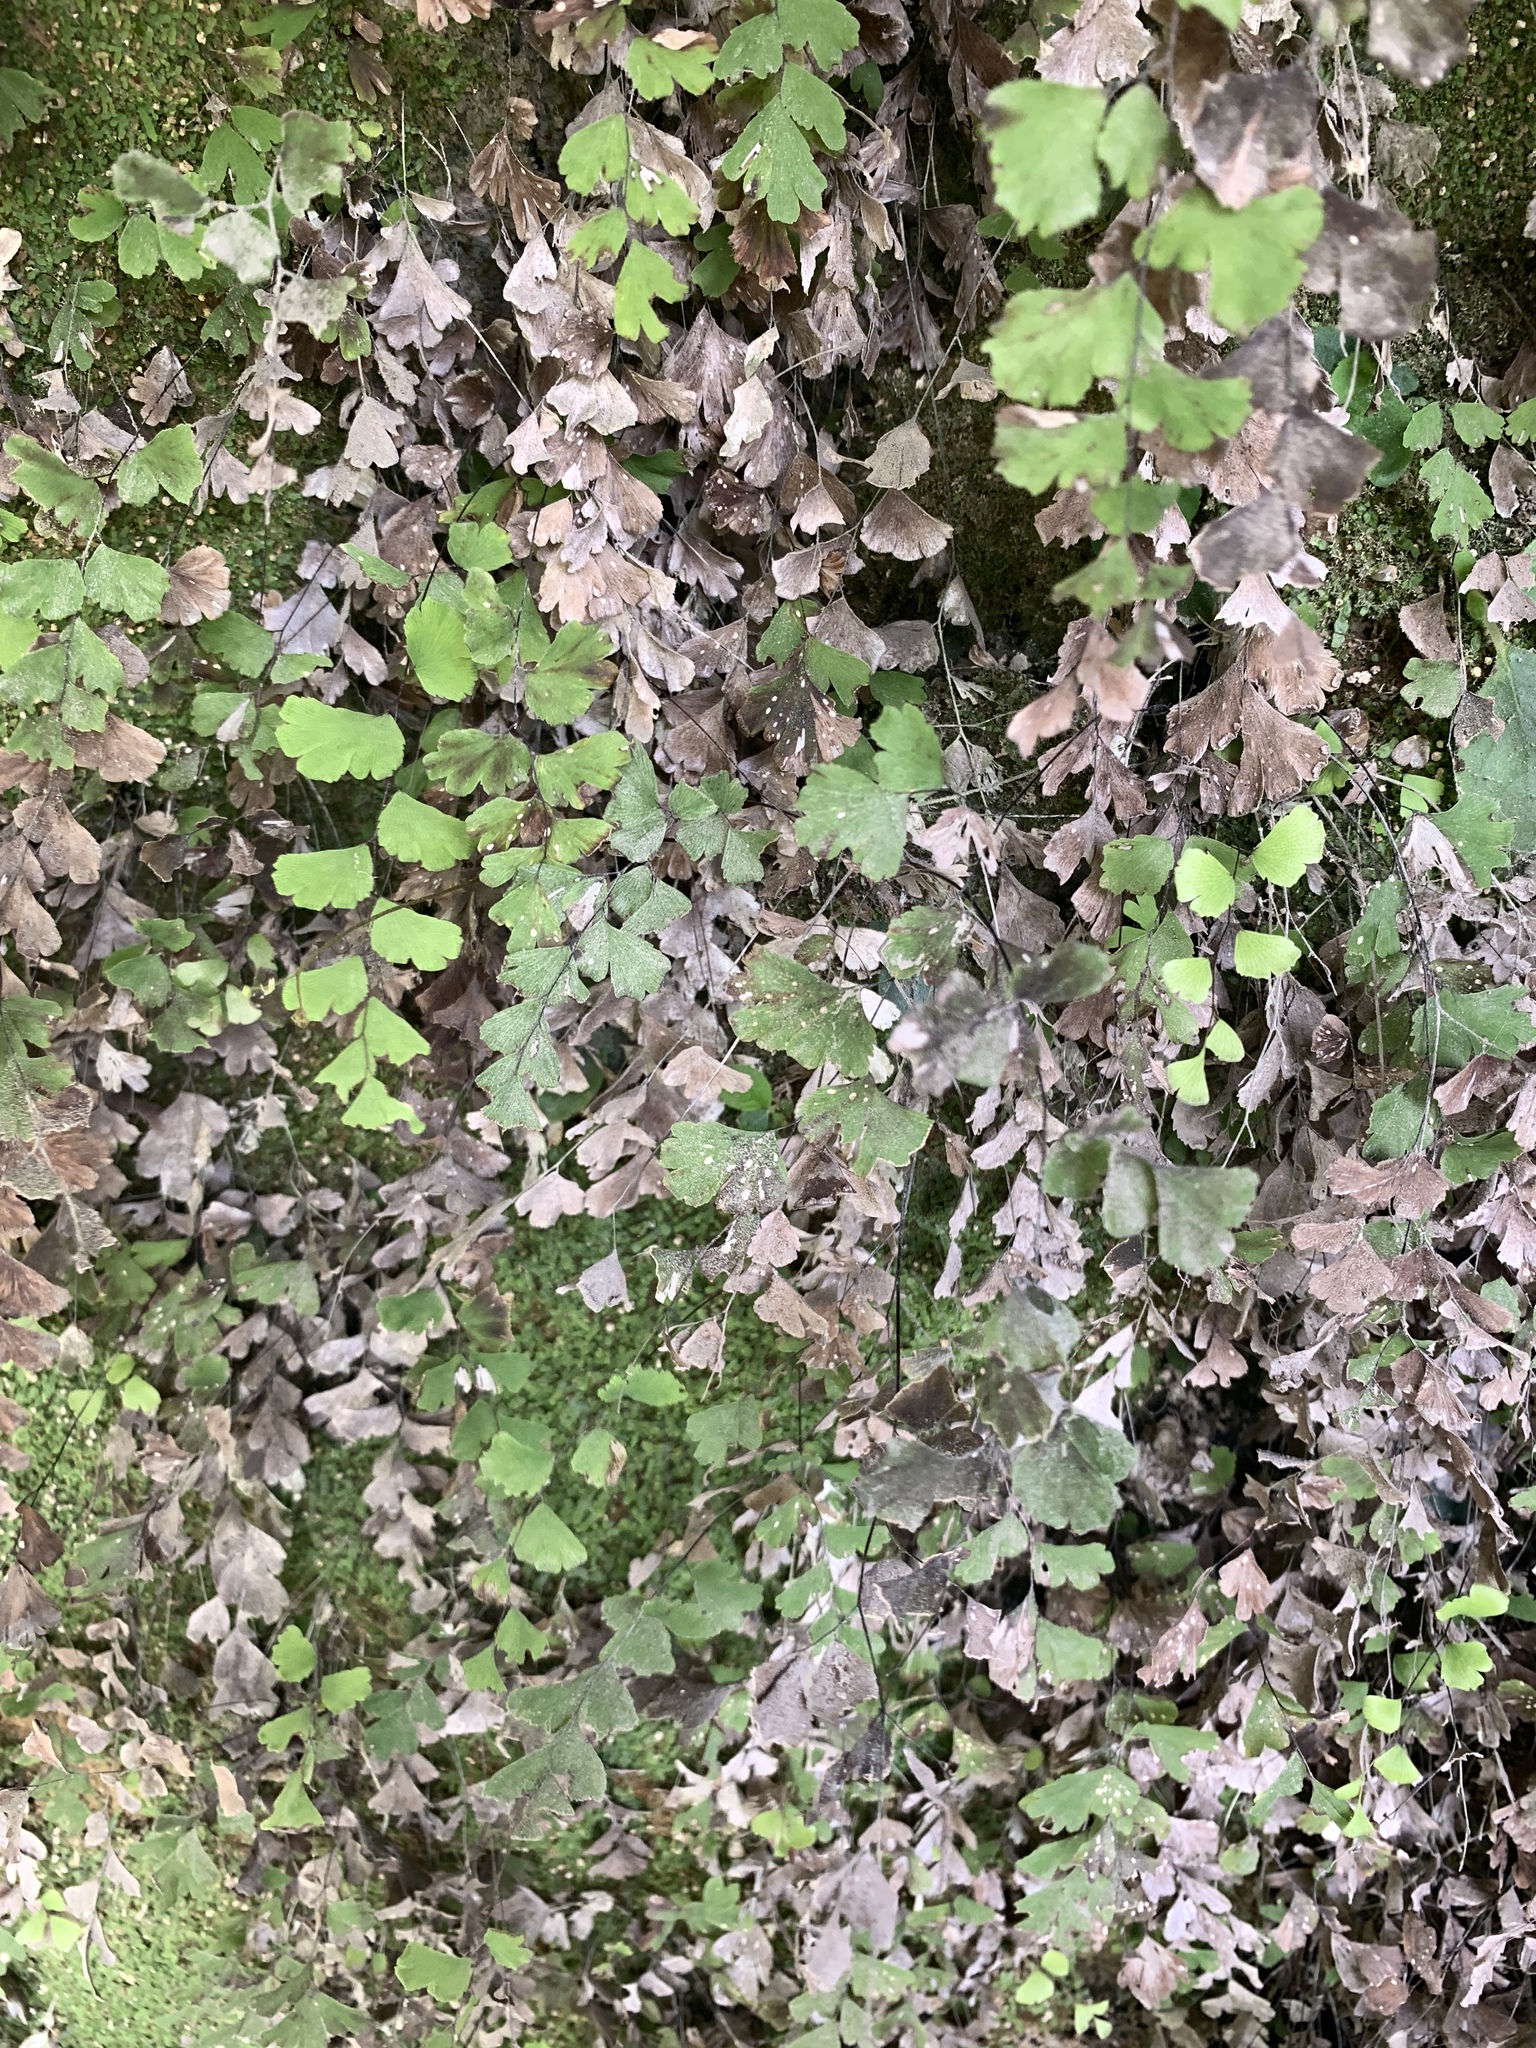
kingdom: Plantae
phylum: Tracheophyta
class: Polypodiopsida
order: Polypodiales
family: Pteridaceae
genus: Adiantum
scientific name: Adiantum capillus-veneris
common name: Maidenhair fern
